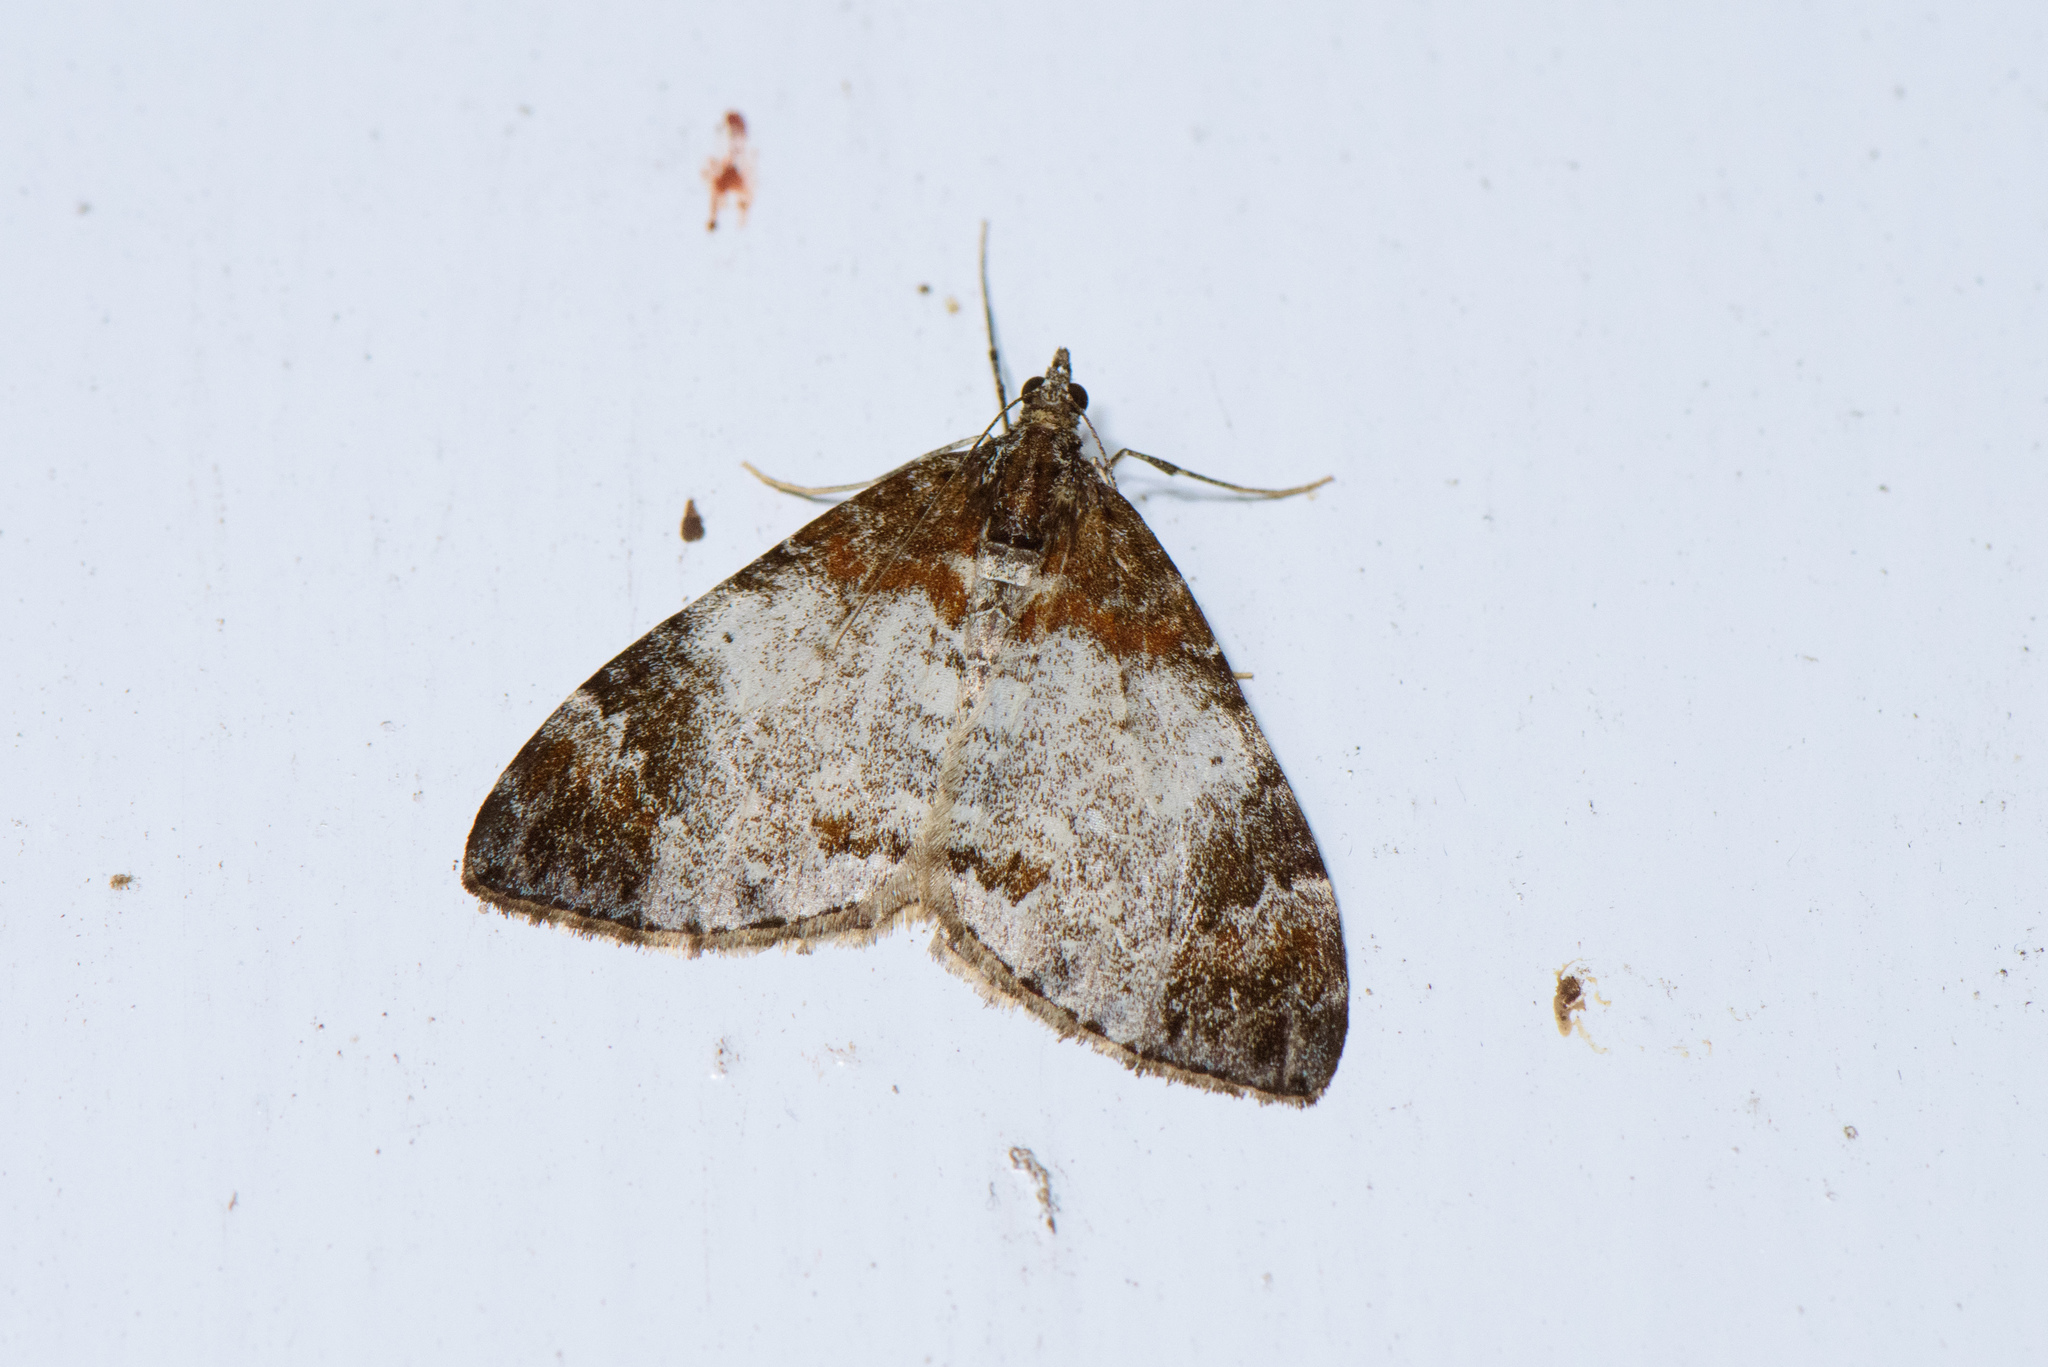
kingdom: Animalia
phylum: Arthropoda
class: Insecta
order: Lepidoptera
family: Geometridae
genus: Dysstroma
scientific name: Dysstroma cinereata
